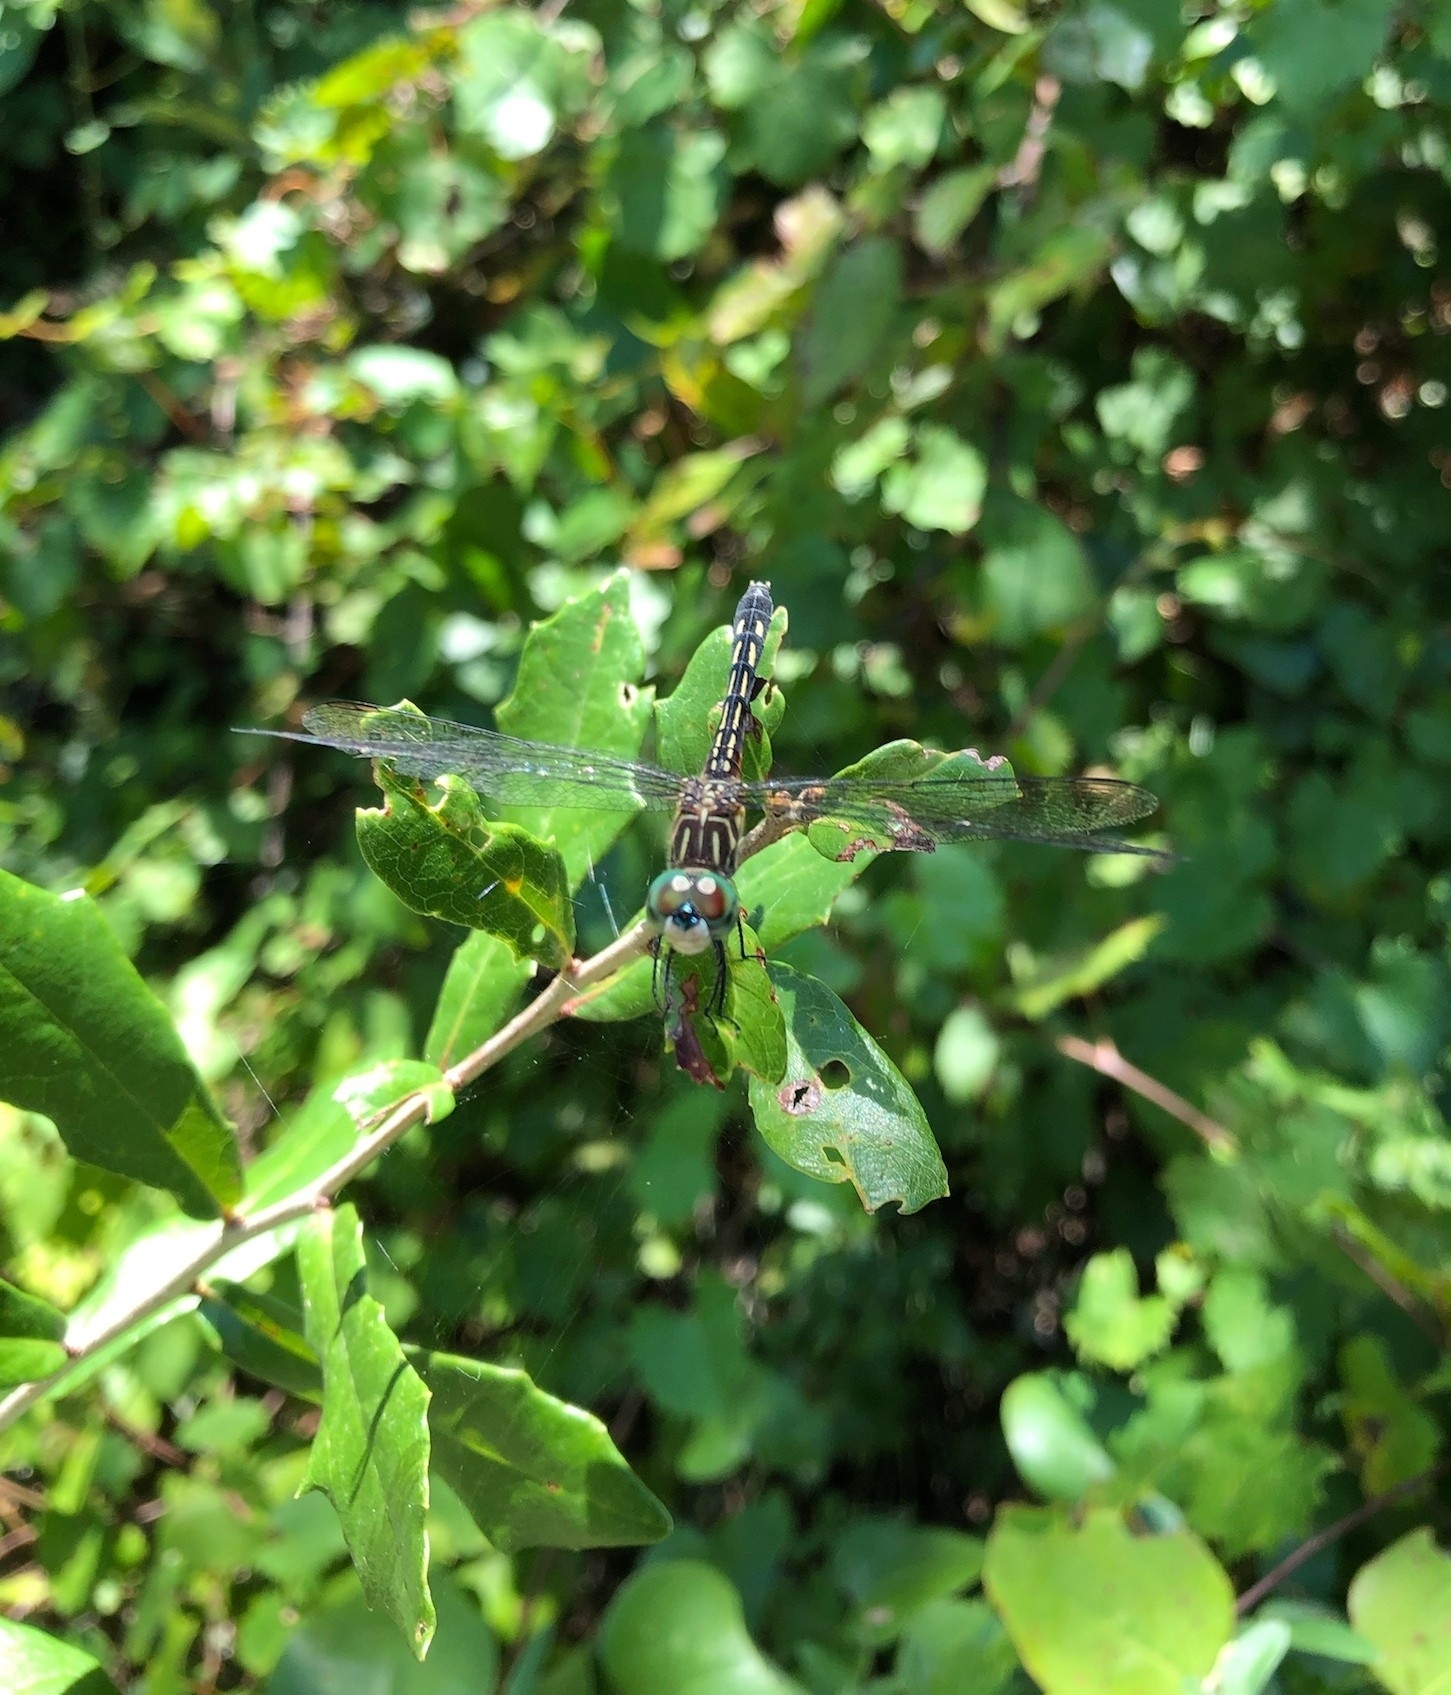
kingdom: Animalia
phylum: Arthropoda
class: Insecta
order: Odonata
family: Libellulidae
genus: Pachydiplax
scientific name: Pachydiplax longipennis
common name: Blue dasher
